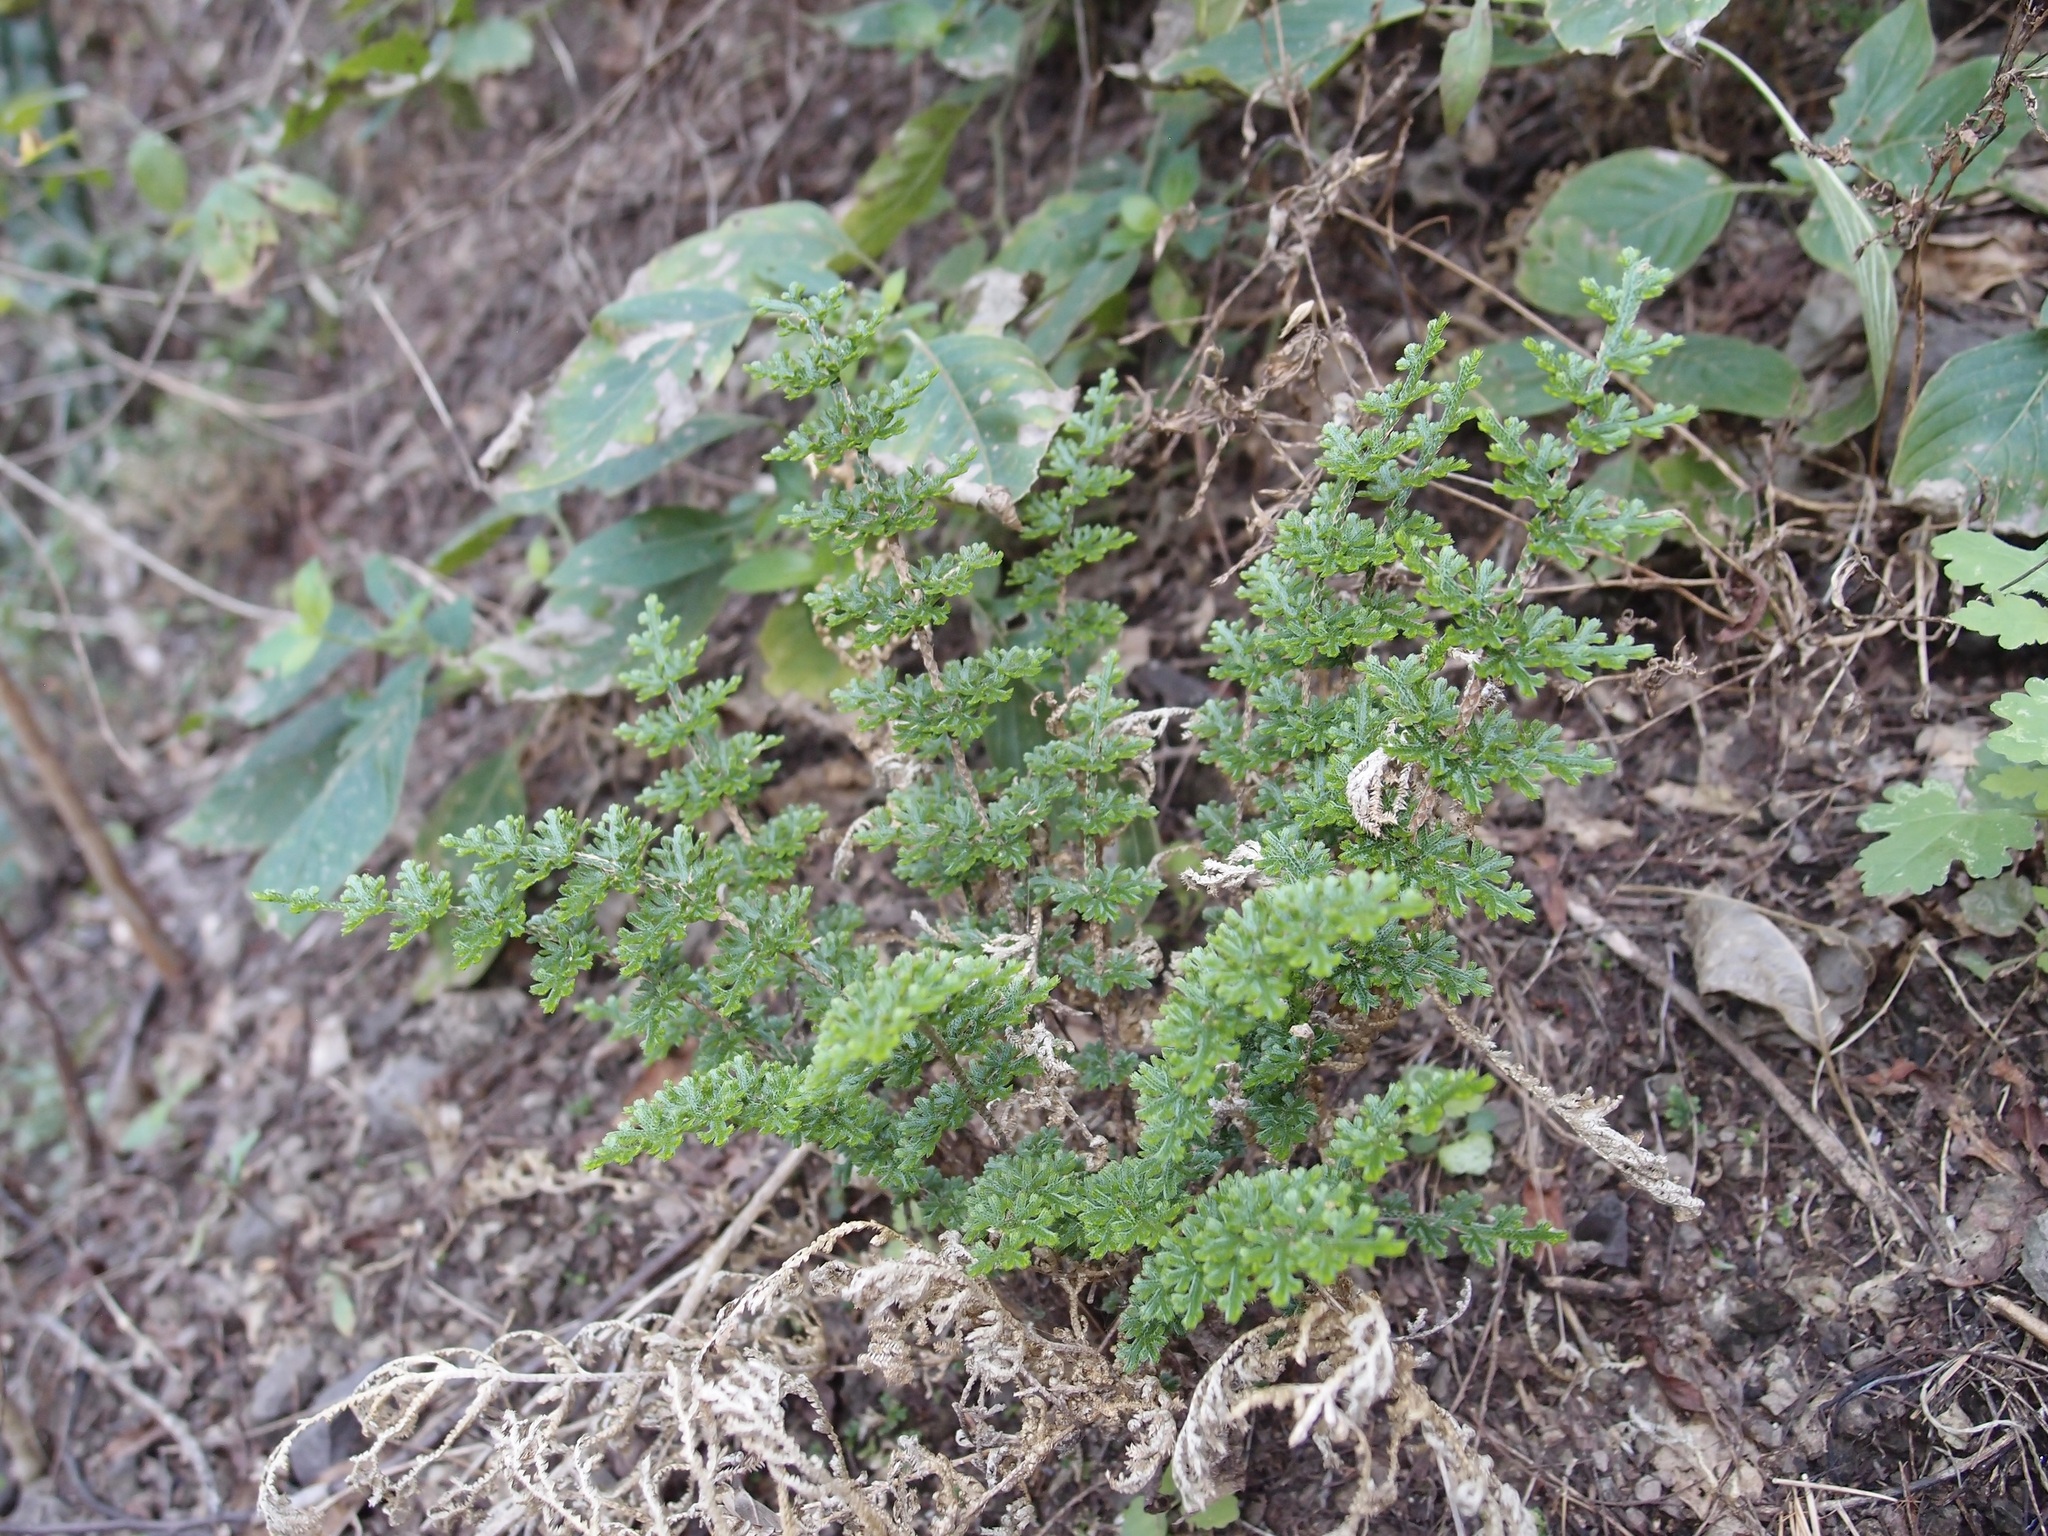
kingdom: Plantae
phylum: Tracheophyta
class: Lycopodiopsida
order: Selaginellales
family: Selaginellaceae
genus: Selaginella
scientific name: Selaginella pallescens
